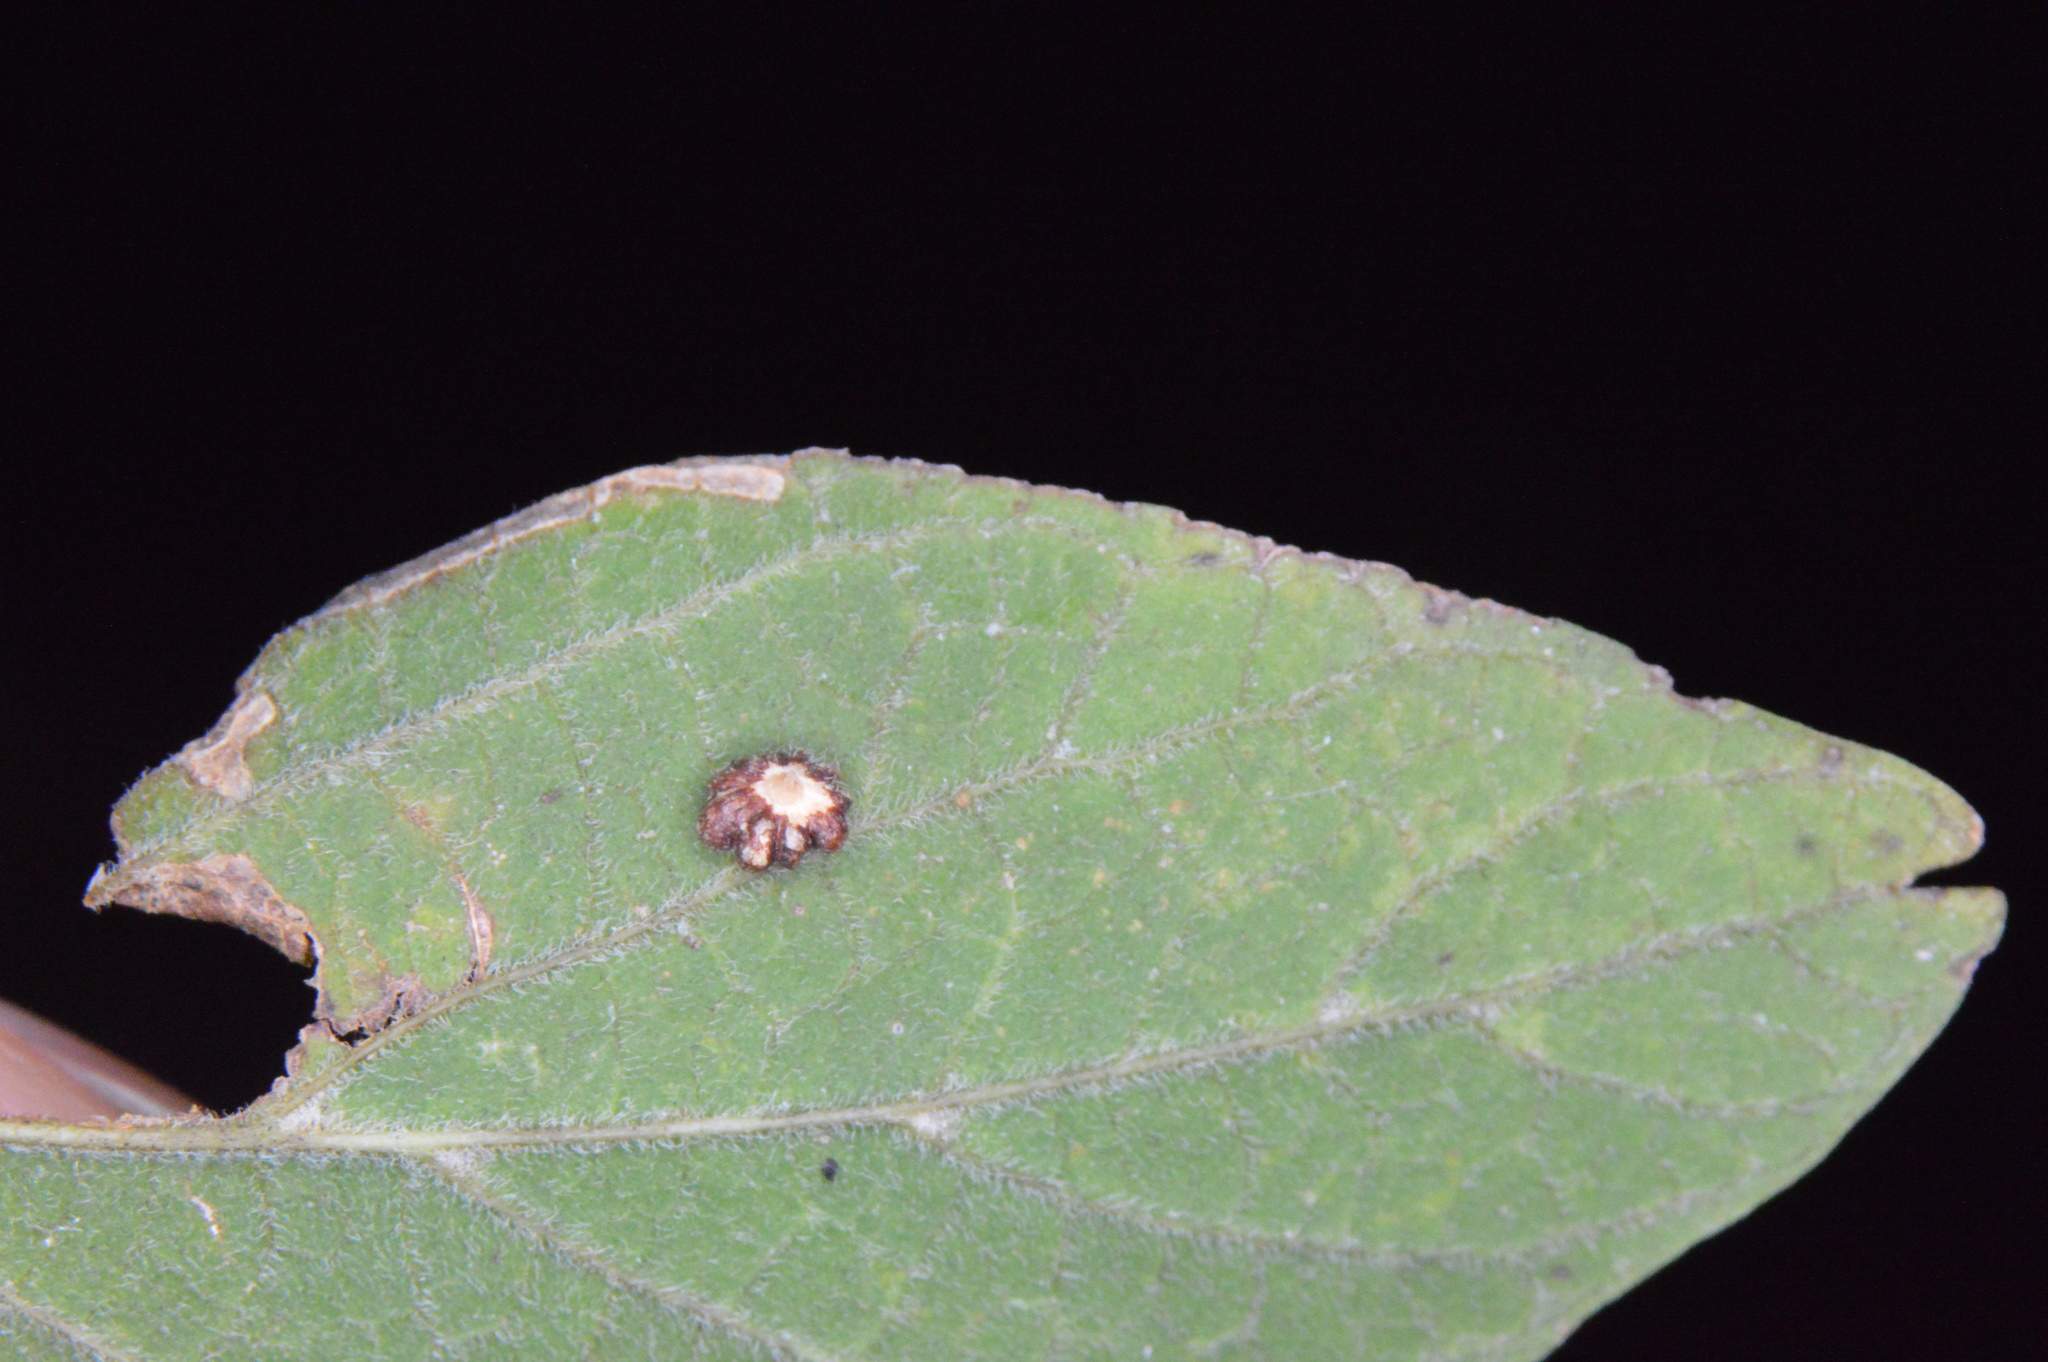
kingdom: Animalia
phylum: Arthropoda
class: Insecta
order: Diptera
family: Cecidomyiidae
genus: Celticecis
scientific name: Celticecis capsularis
